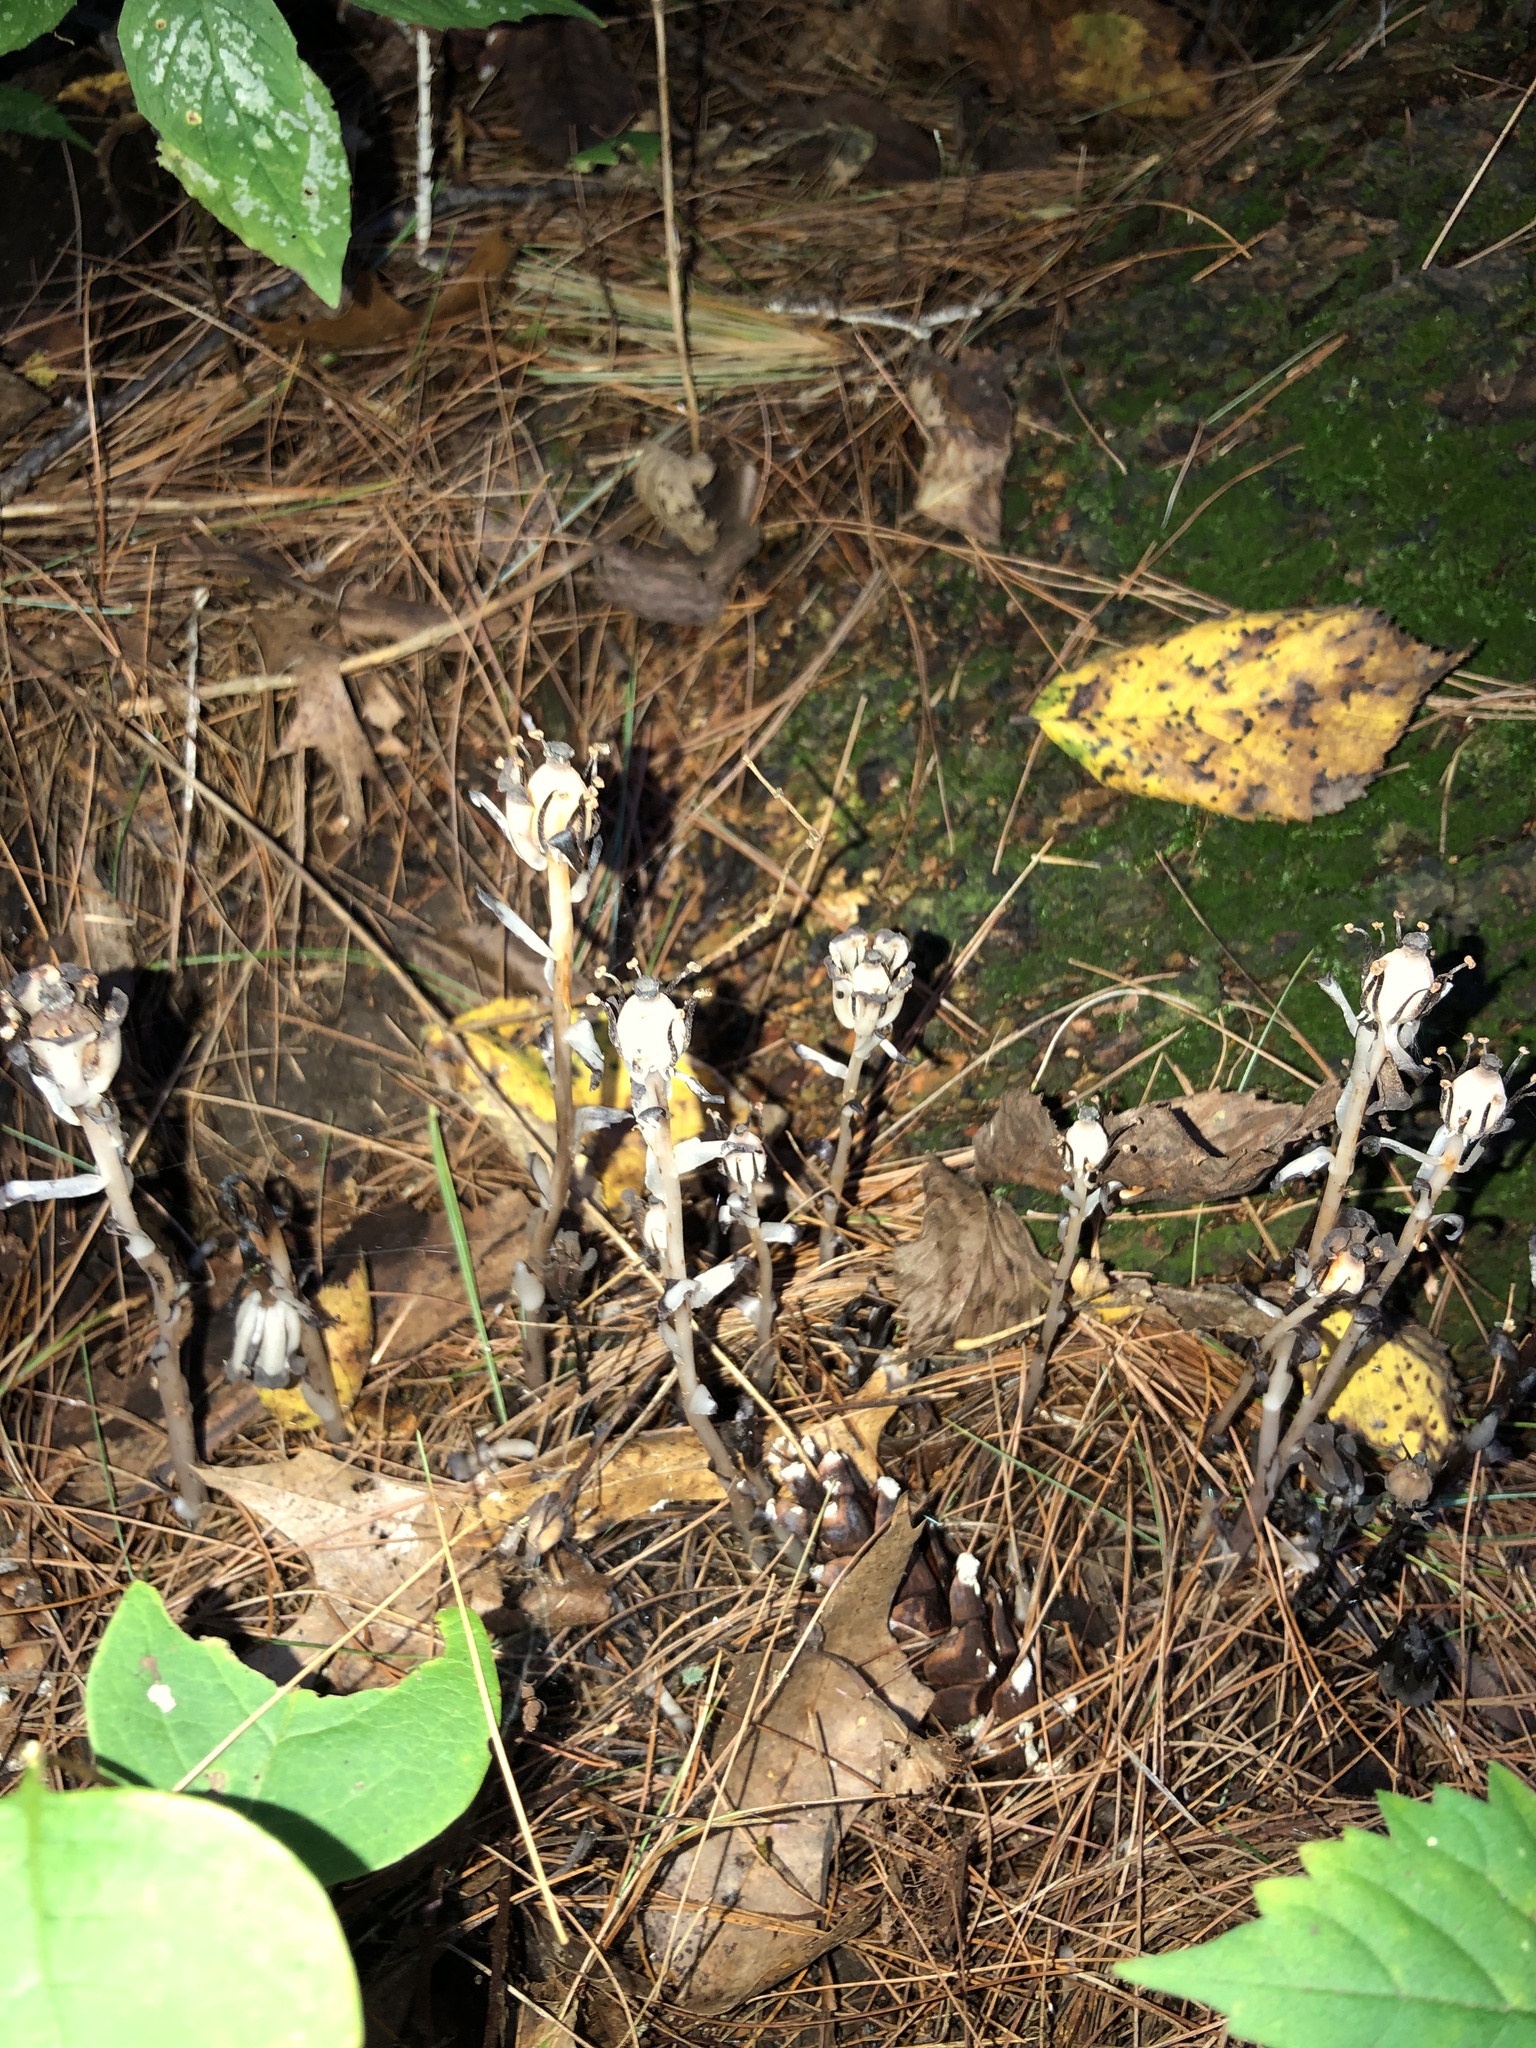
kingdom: Plantae
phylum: Tracheophyta
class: Magnoliopsida
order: Ericales
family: Ericaceae
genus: Monotropa
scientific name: Monotropa uniflora
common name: Convulsion root
